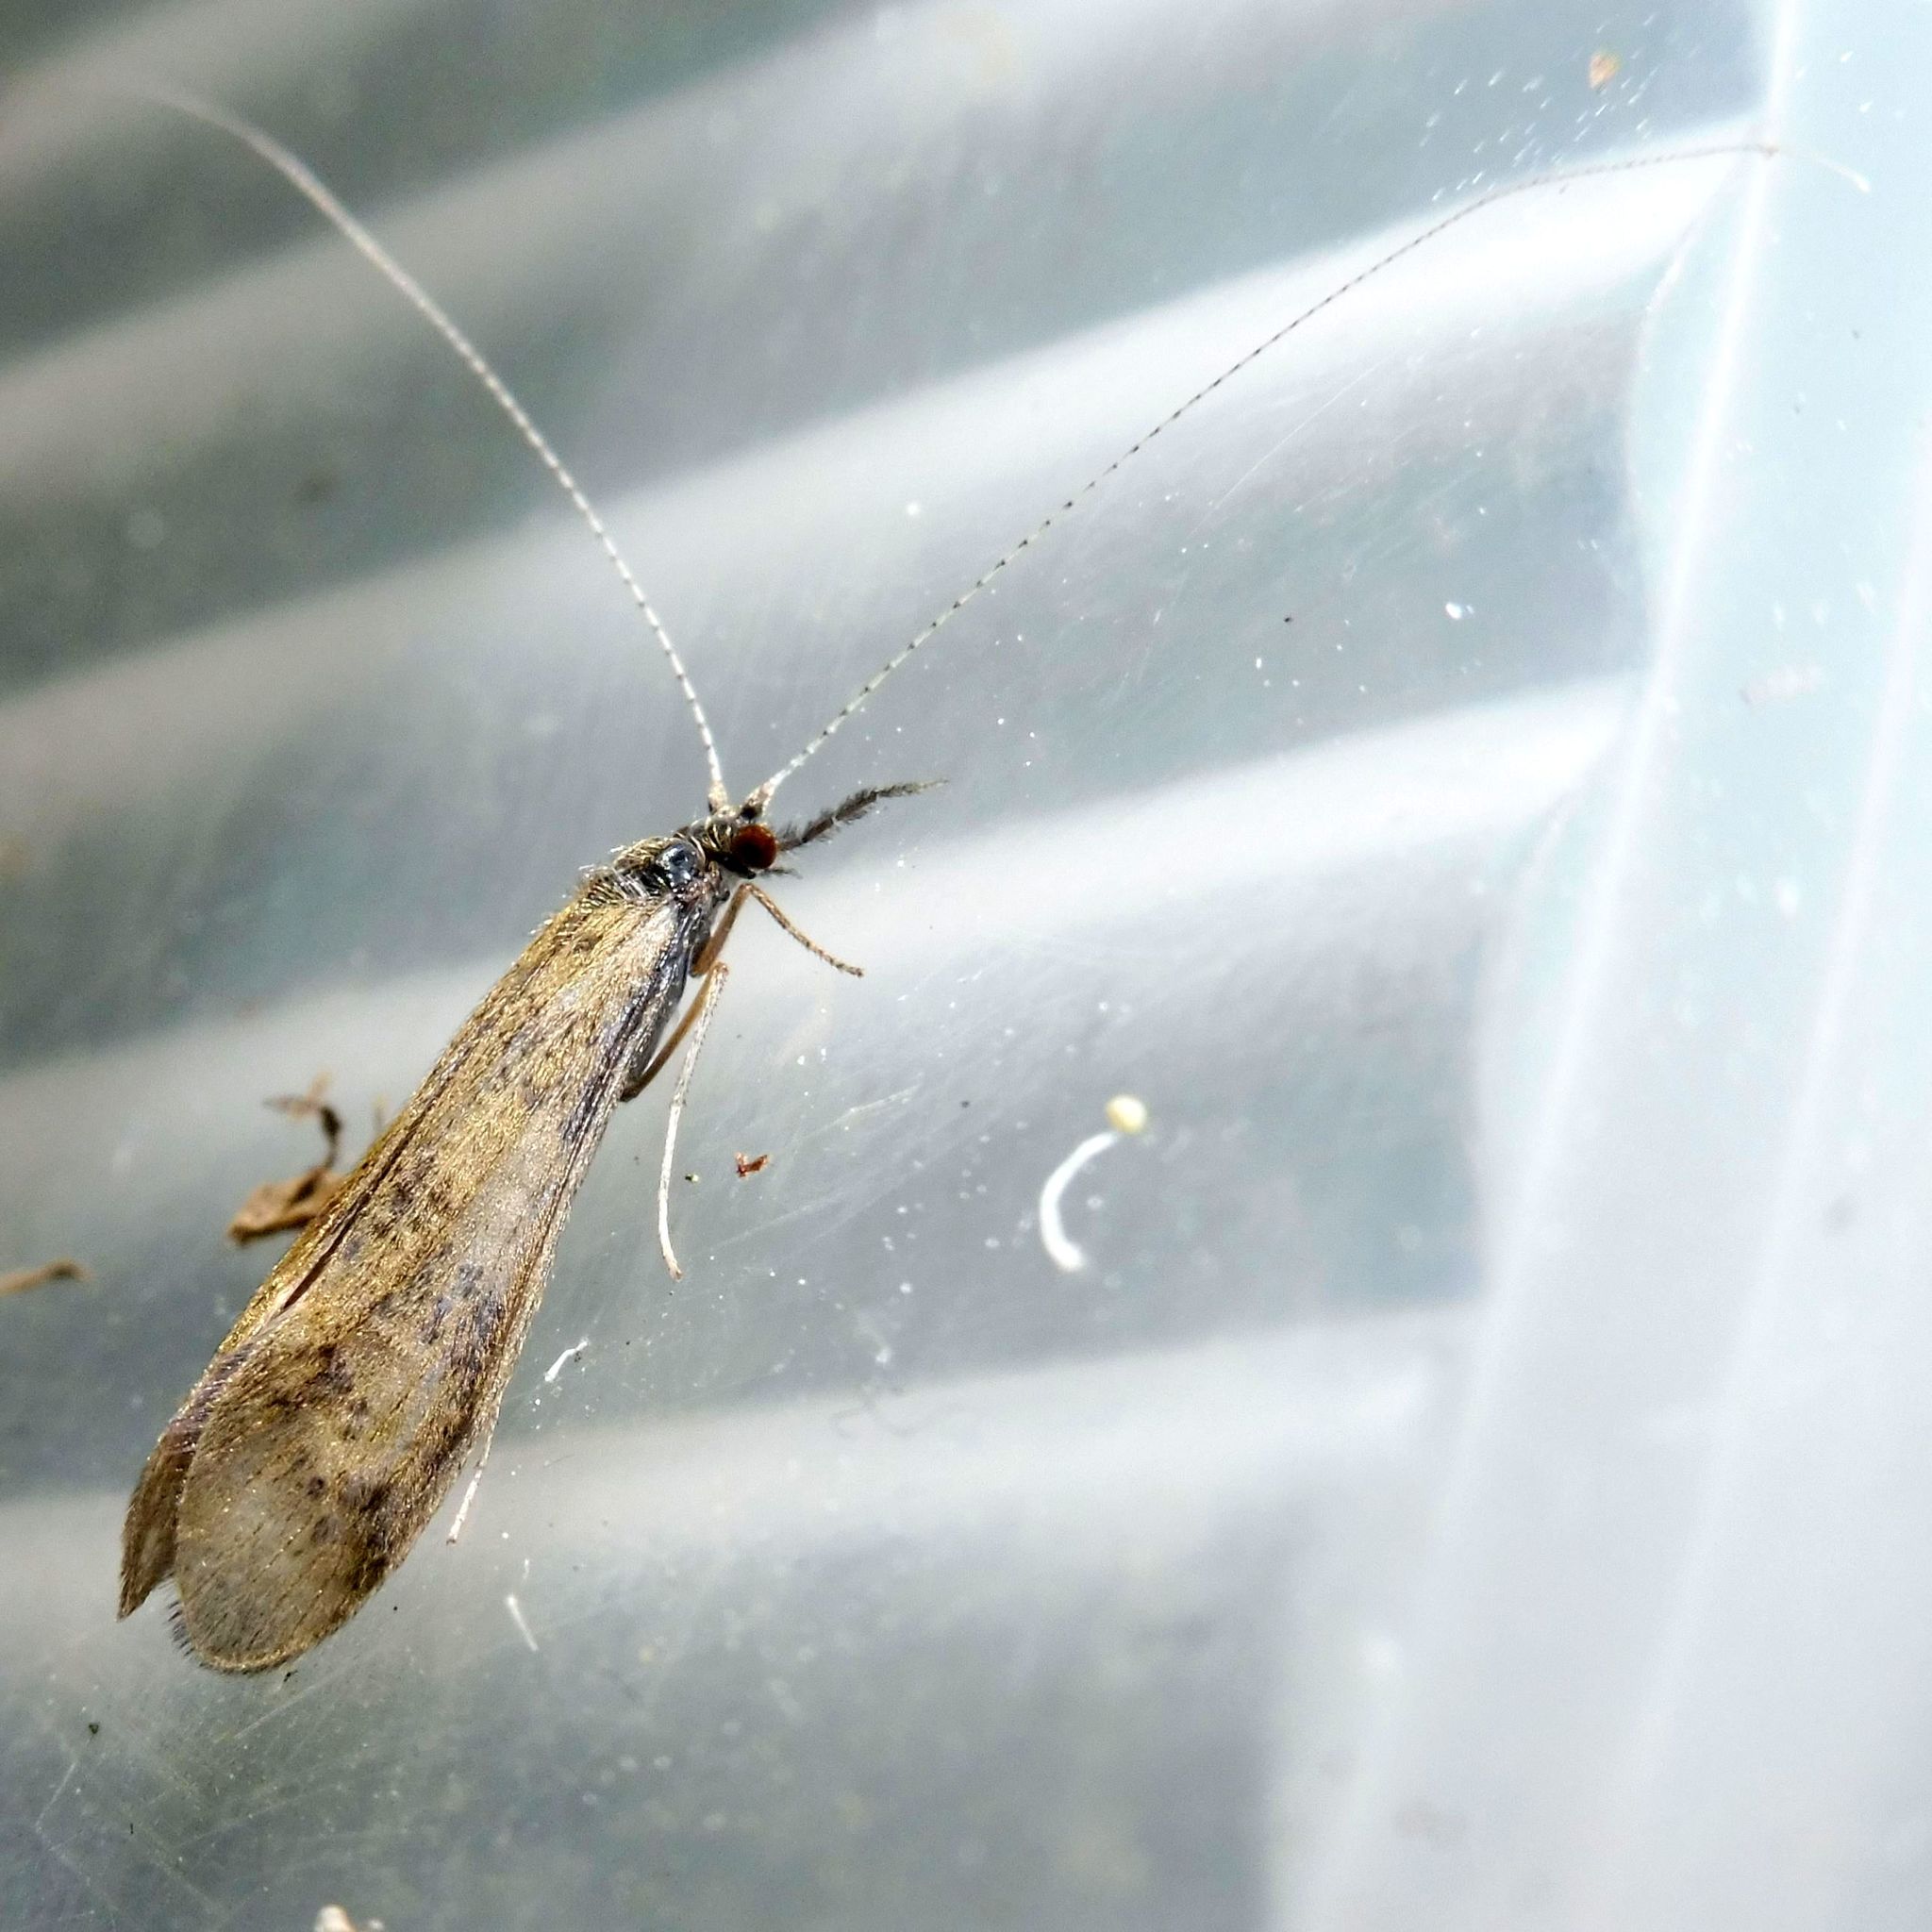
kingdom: Animalia
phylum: Arthropoda
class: Insecta
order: Trichoptera
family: Leptoceridae
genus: Mystacides
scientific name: Mystacides longicornis
